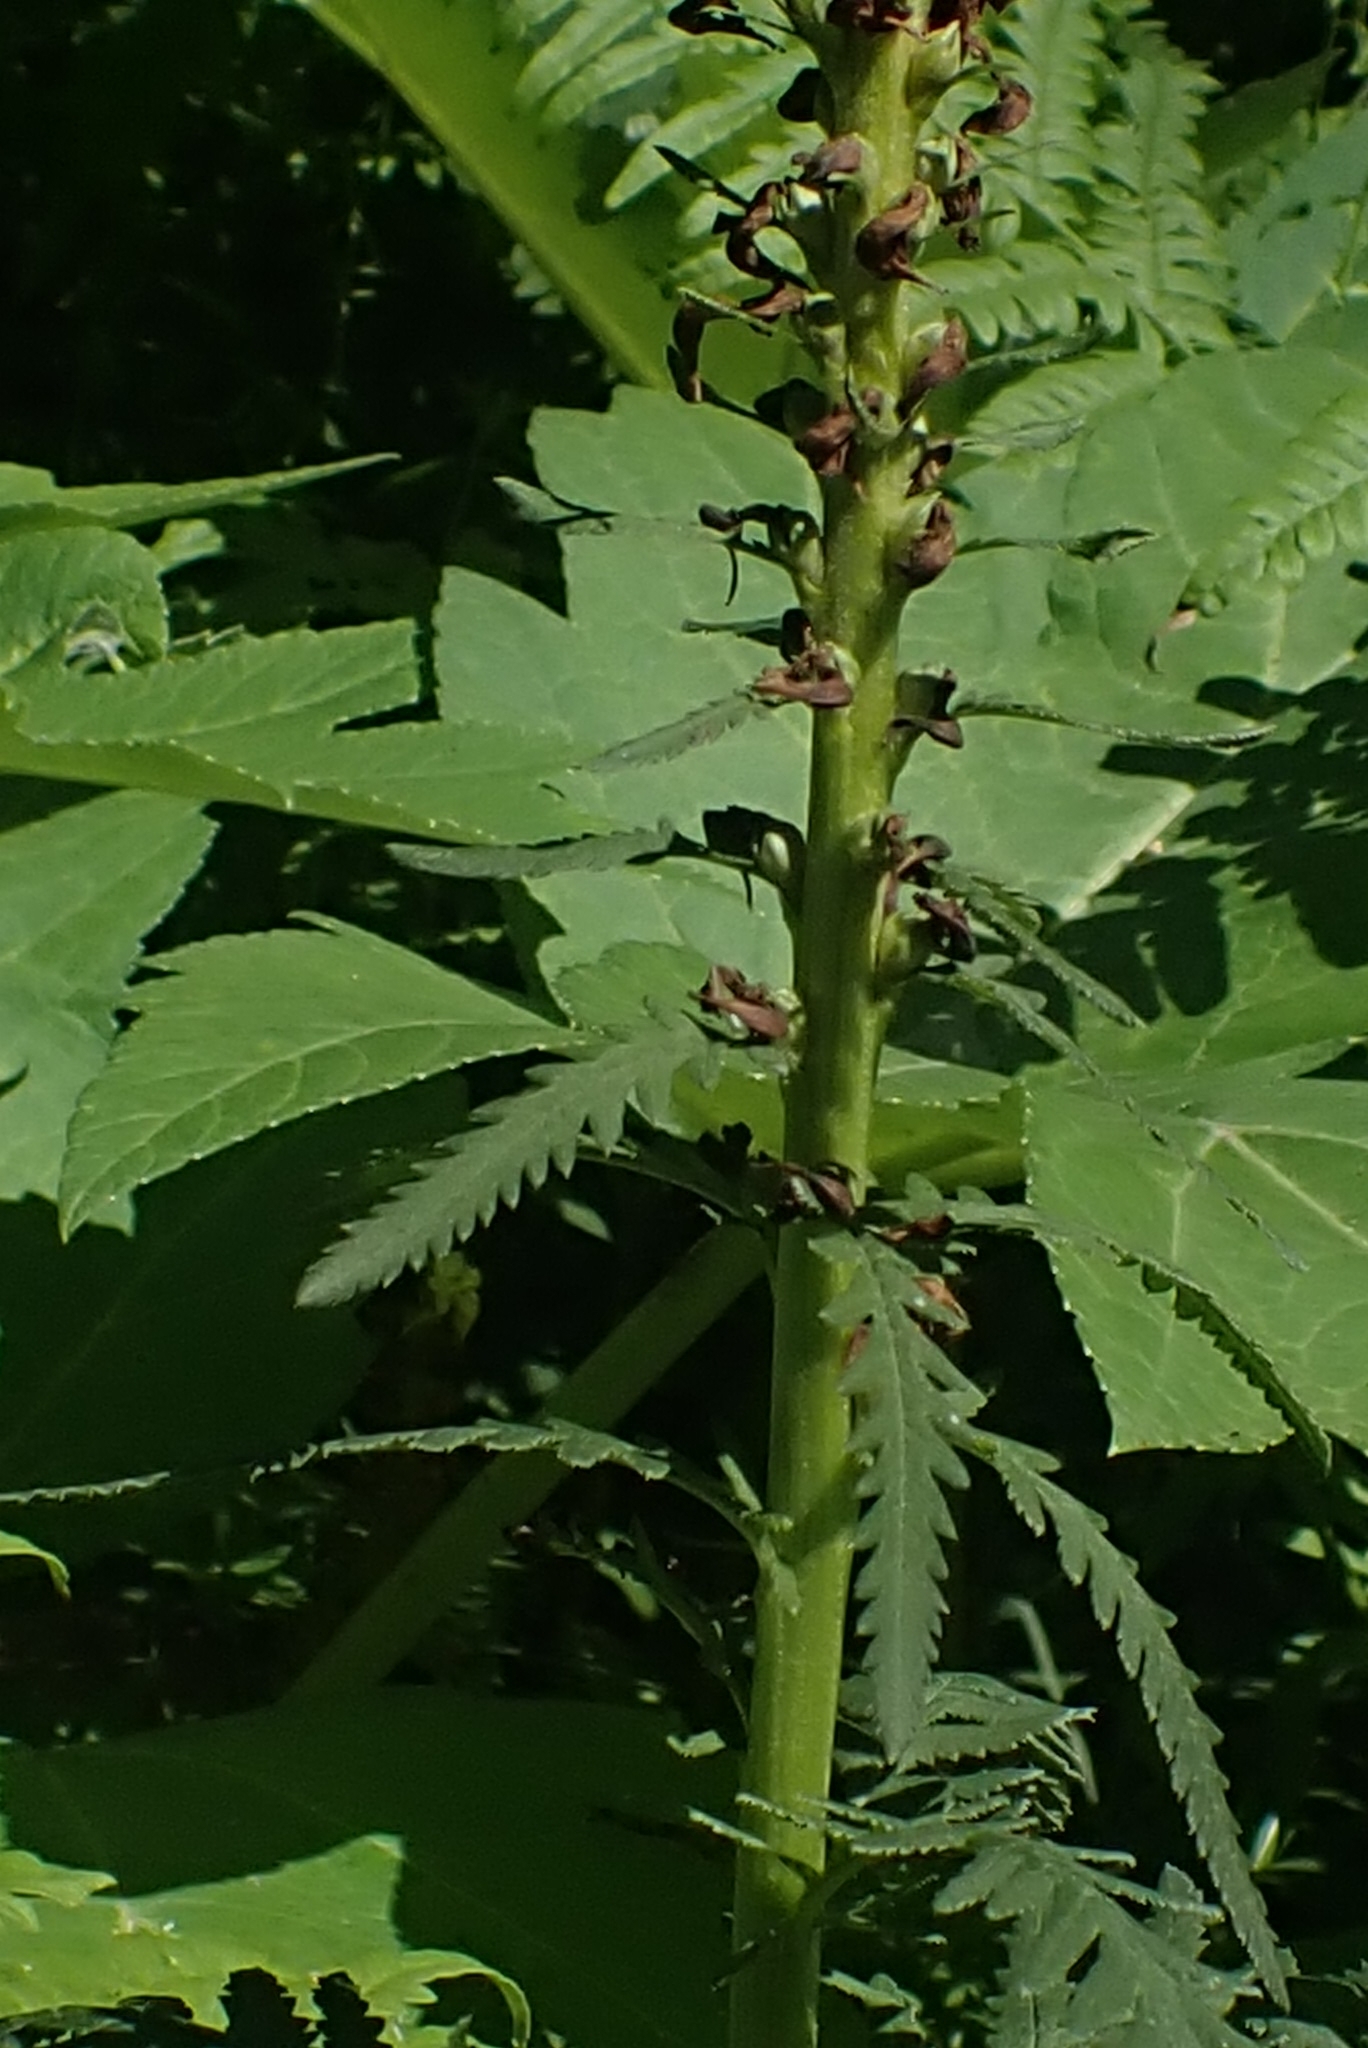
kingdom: Plantae
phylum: Tracheophyta
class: Magnoliopsida
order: Lamiales
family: Orobanchaceae
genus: Pedicularis
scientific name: Pedicularis incarnata
